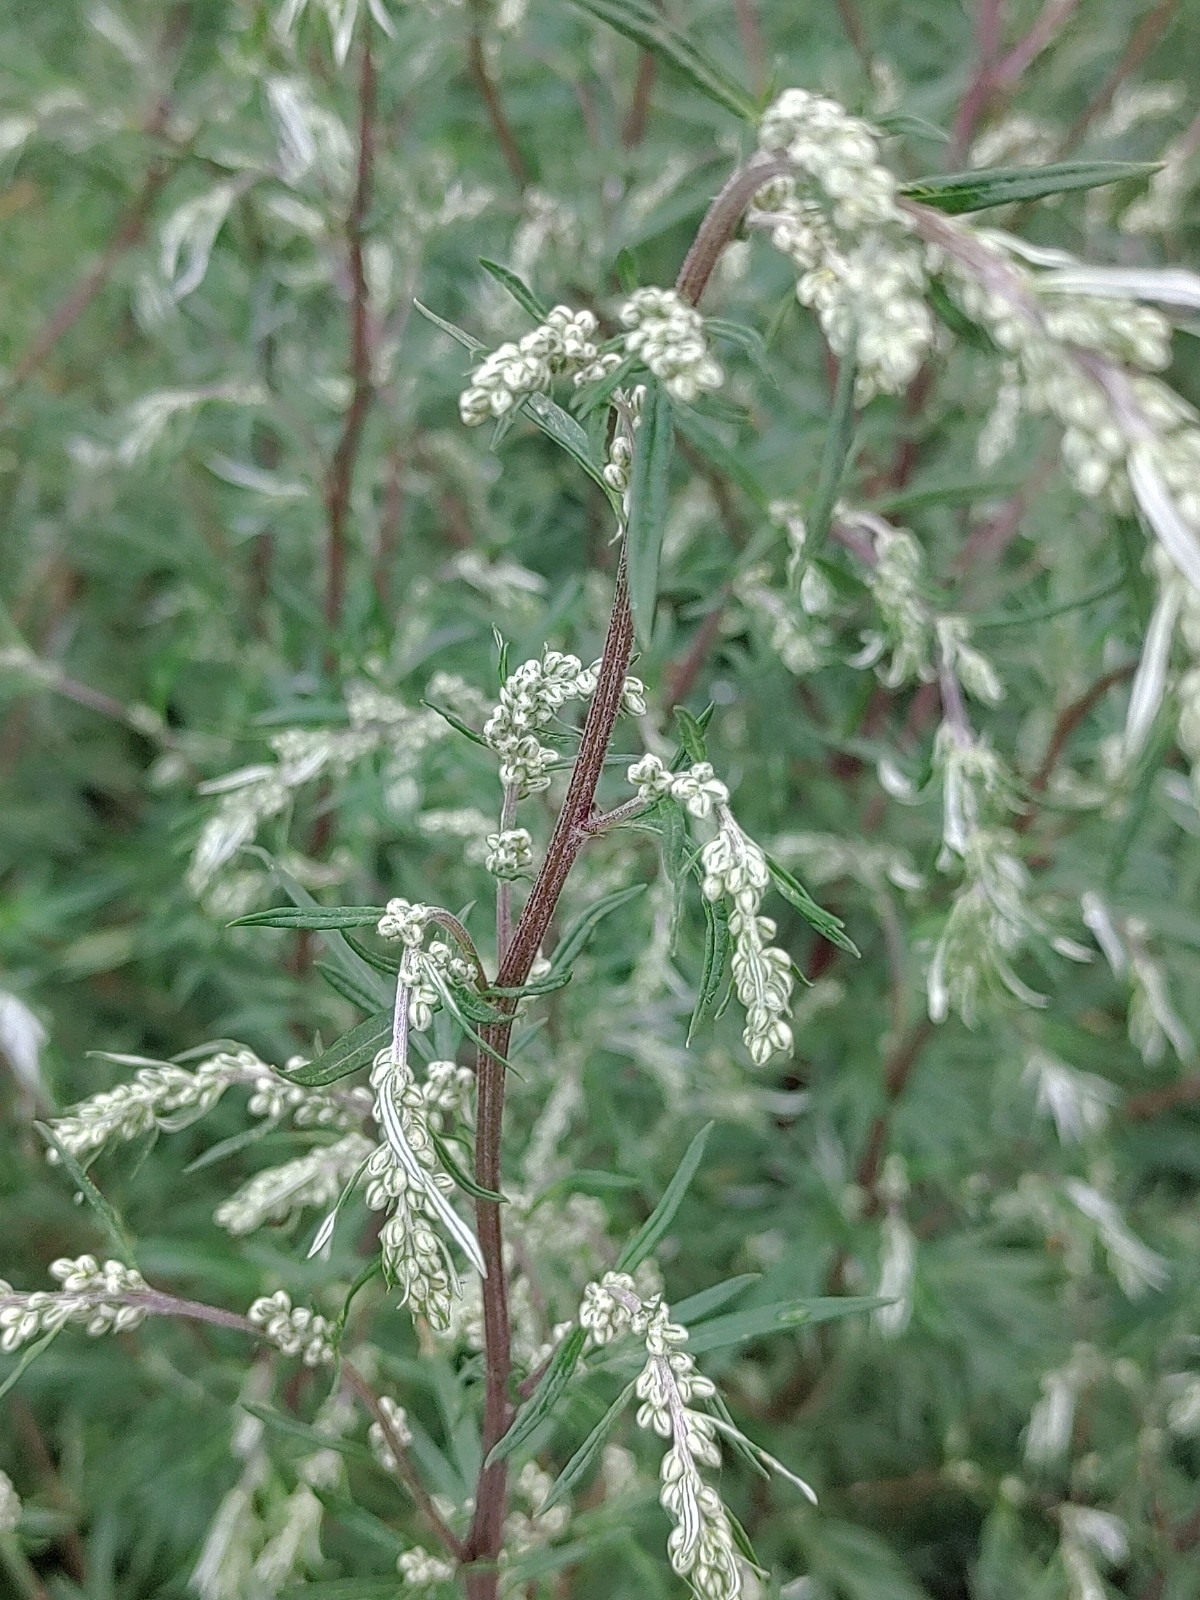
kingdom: Plantae
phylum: Tracheophyta
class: Magnoliopsida
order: Asterales
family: Asteraceae
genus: Artemisia
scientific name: Artemisia vulgaris
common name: Mugwort
